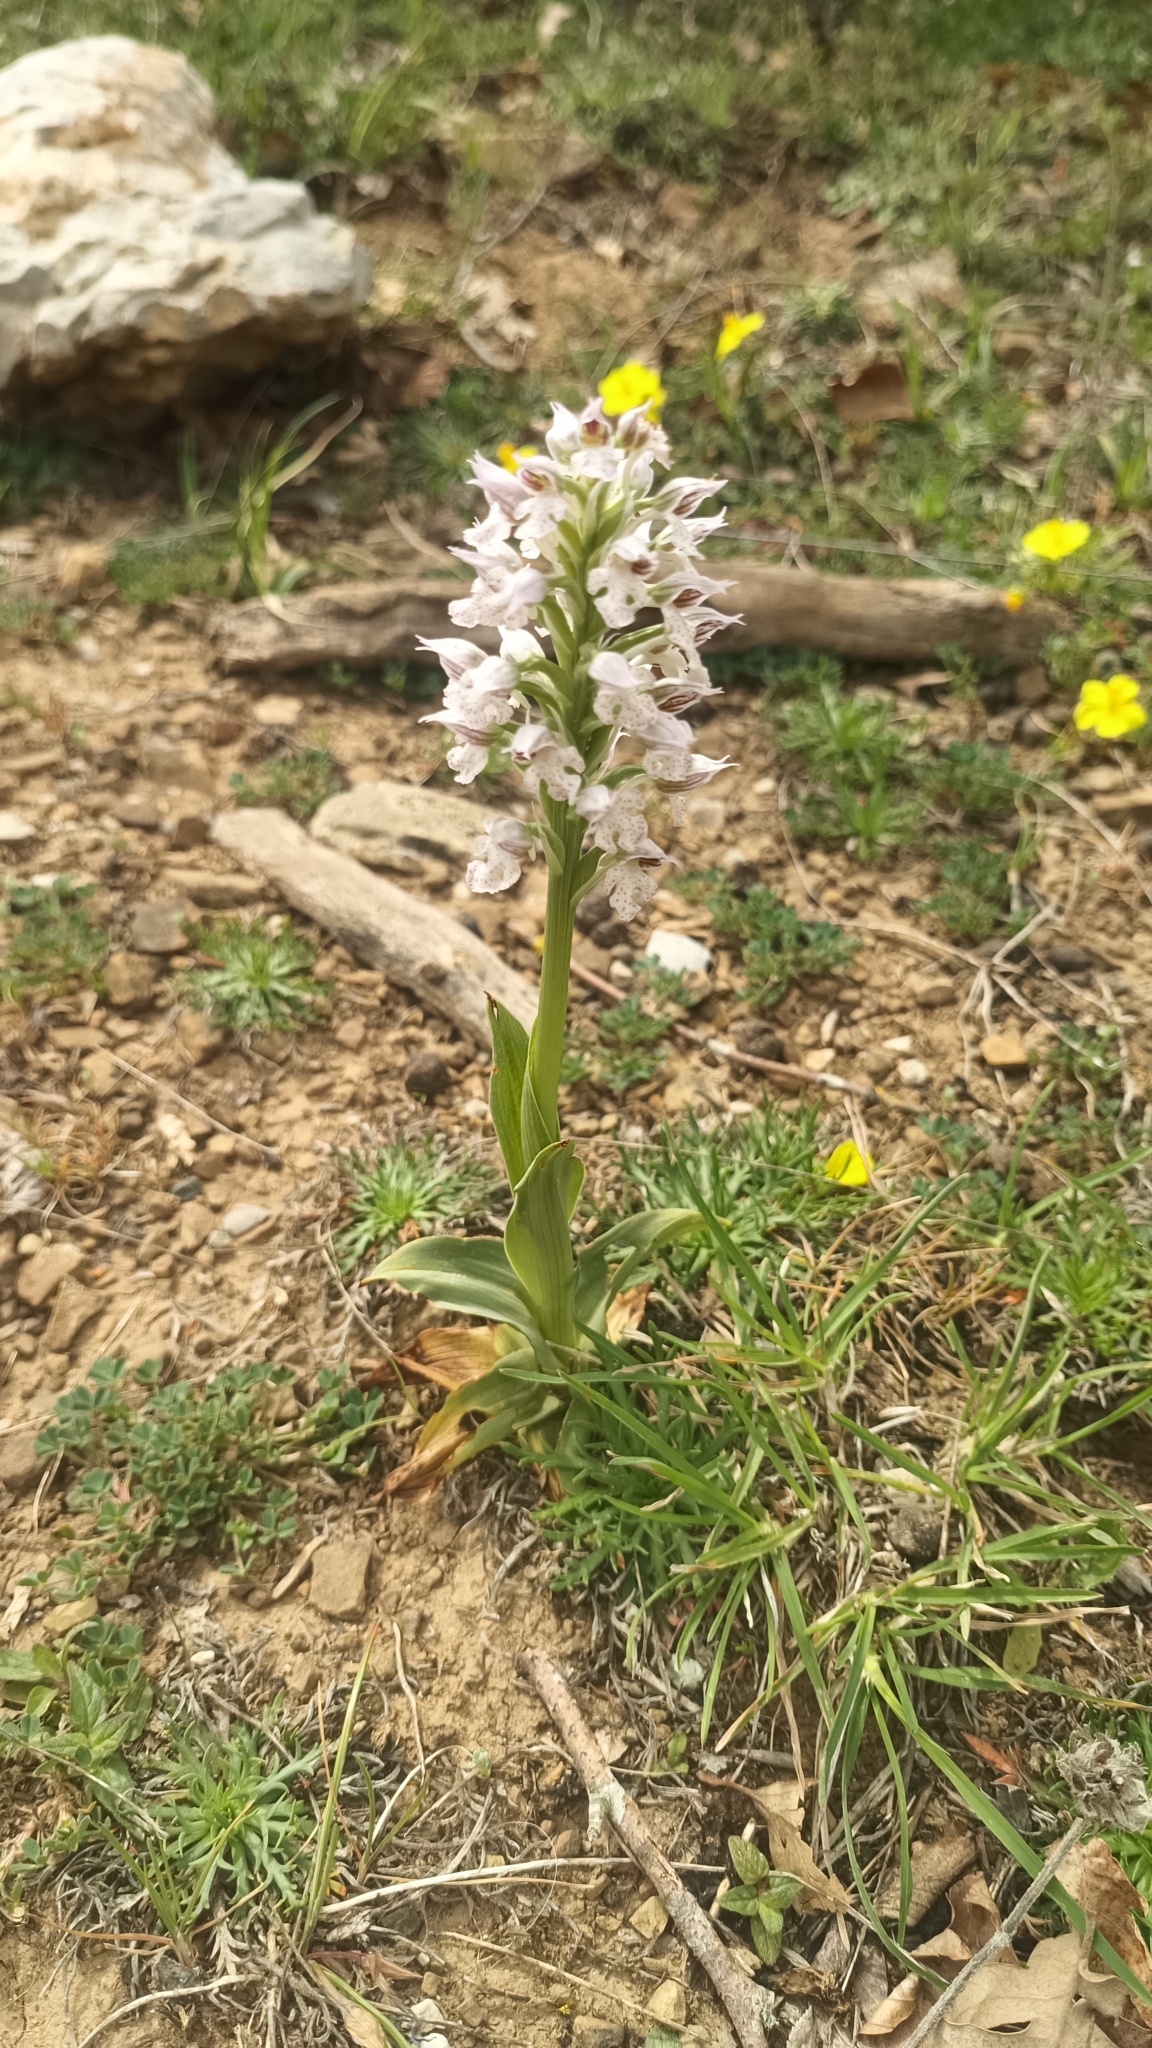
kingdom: Plantae
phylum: Tracheophyta
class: Liliopsida
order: Asparagales
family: Orchidaceae
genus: Neotinea
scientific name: Neotinea lactea
